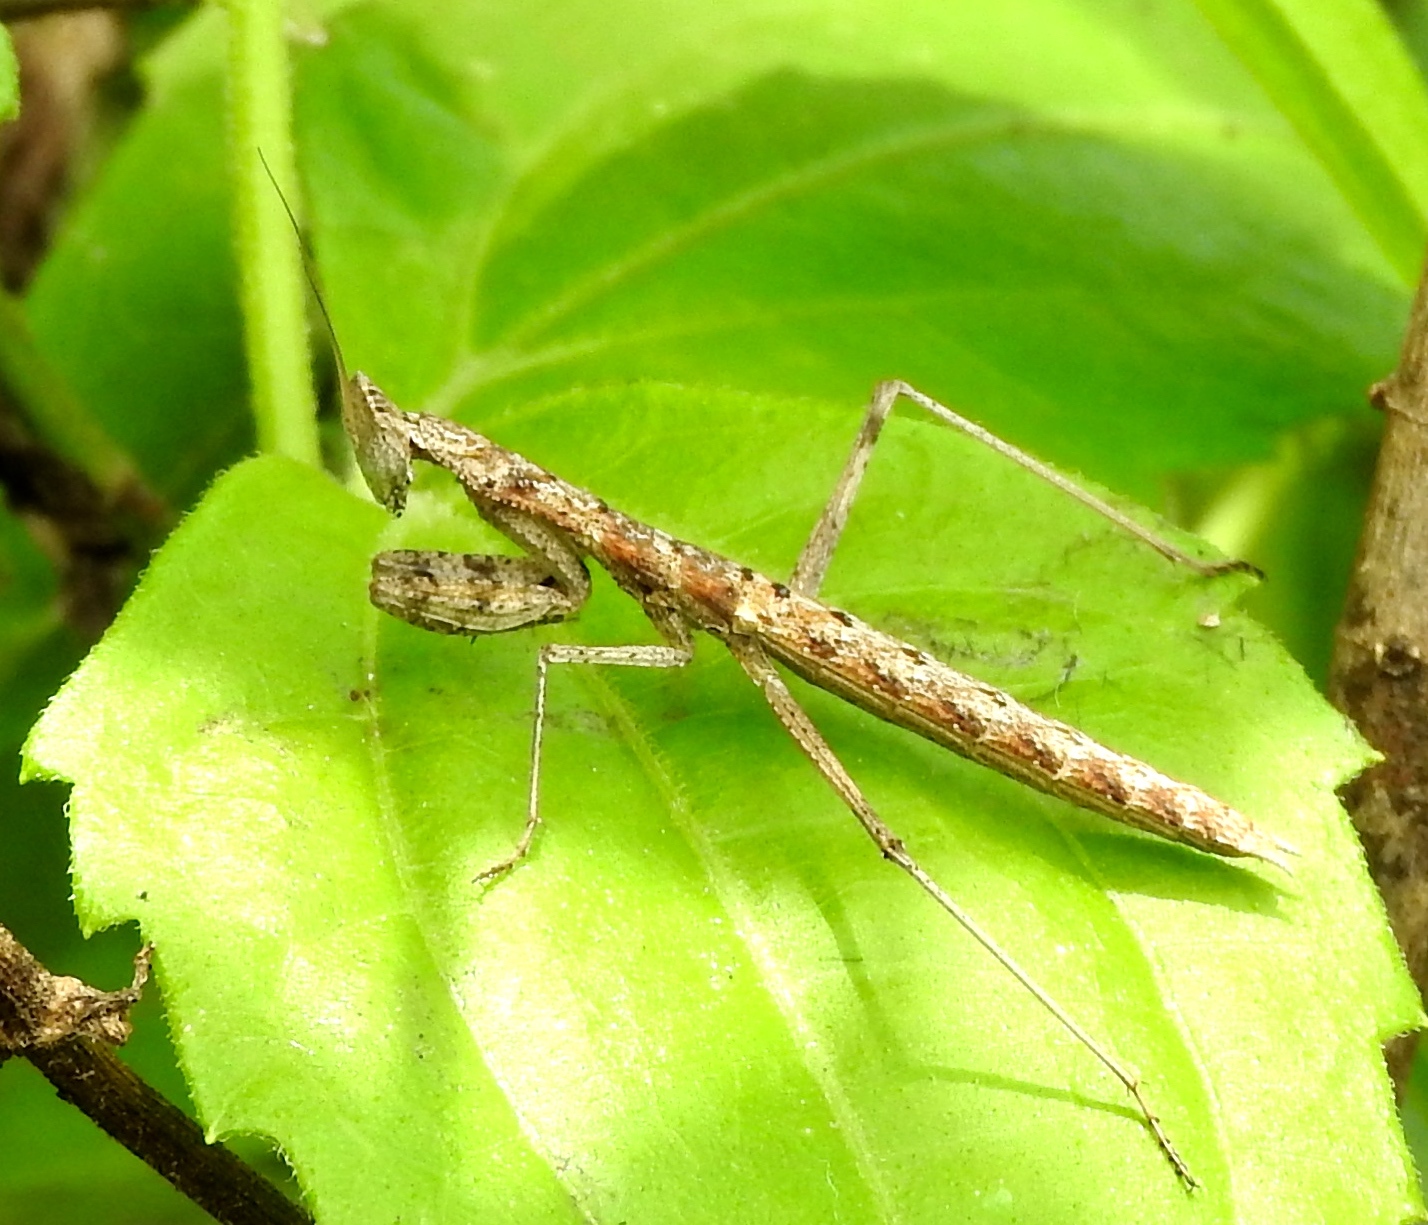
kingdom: Animalia
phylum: Arthropoda
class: Insecta
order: Mantodea
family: Amelidae
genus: Yersinia
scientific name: Yersinia mexicana
